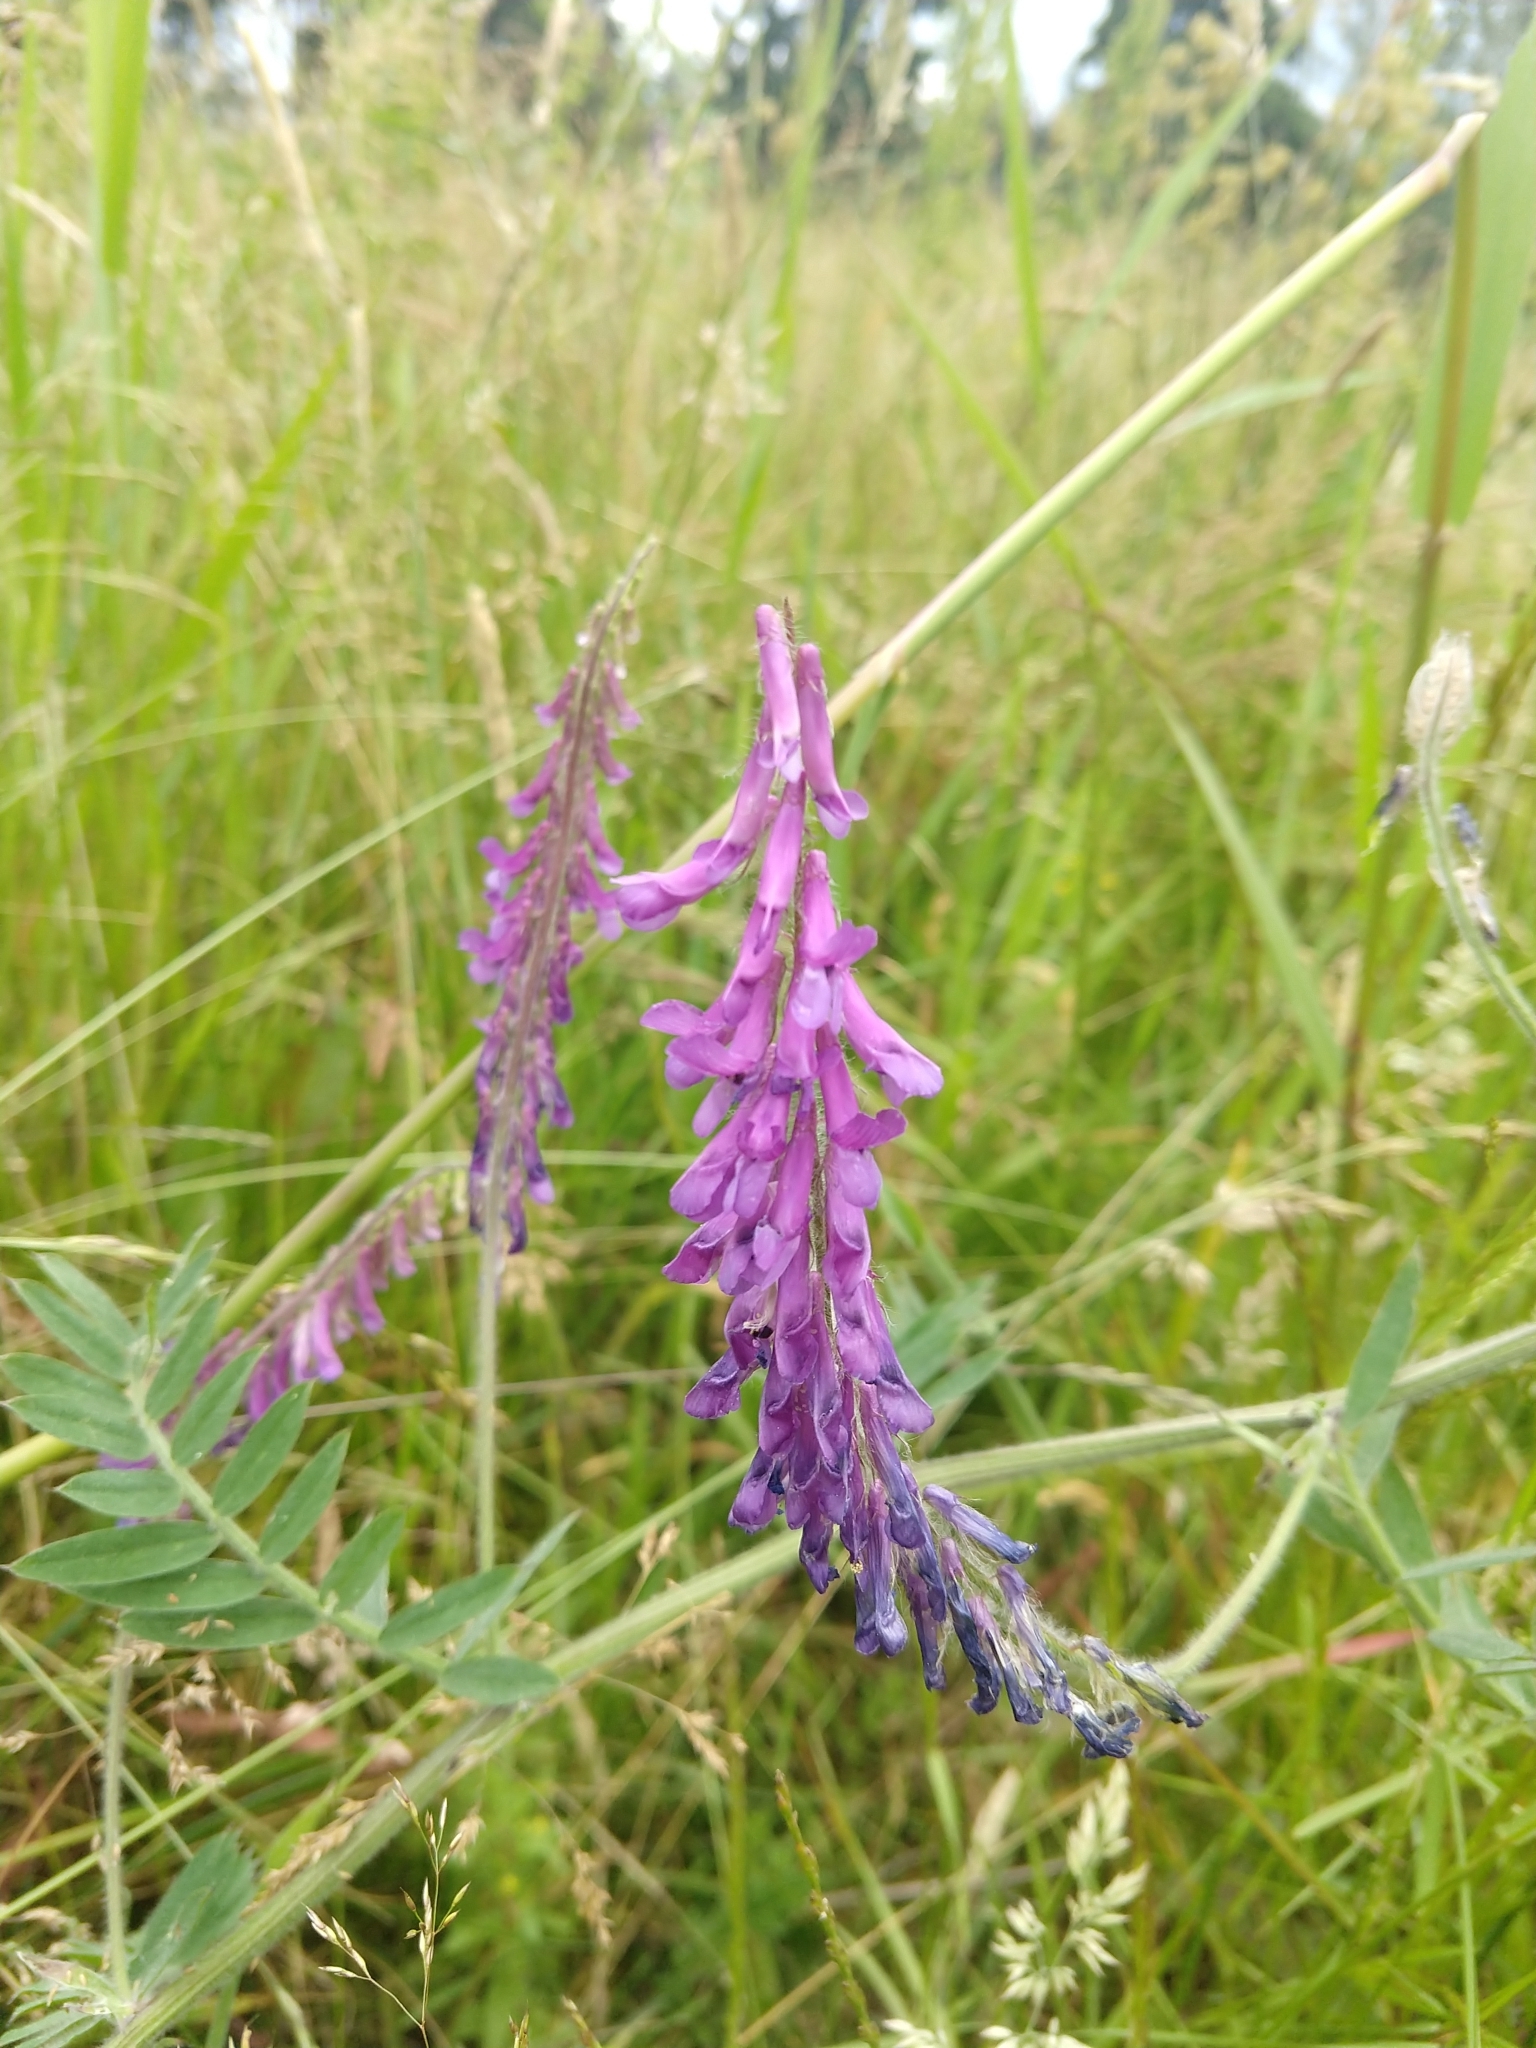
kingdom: Plantae
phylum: Tracheophyta
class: Magnoliopsida
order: Fabales
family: Fabaceae
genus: Vicia
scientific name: Vicia villosa
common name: Fodder vetch
